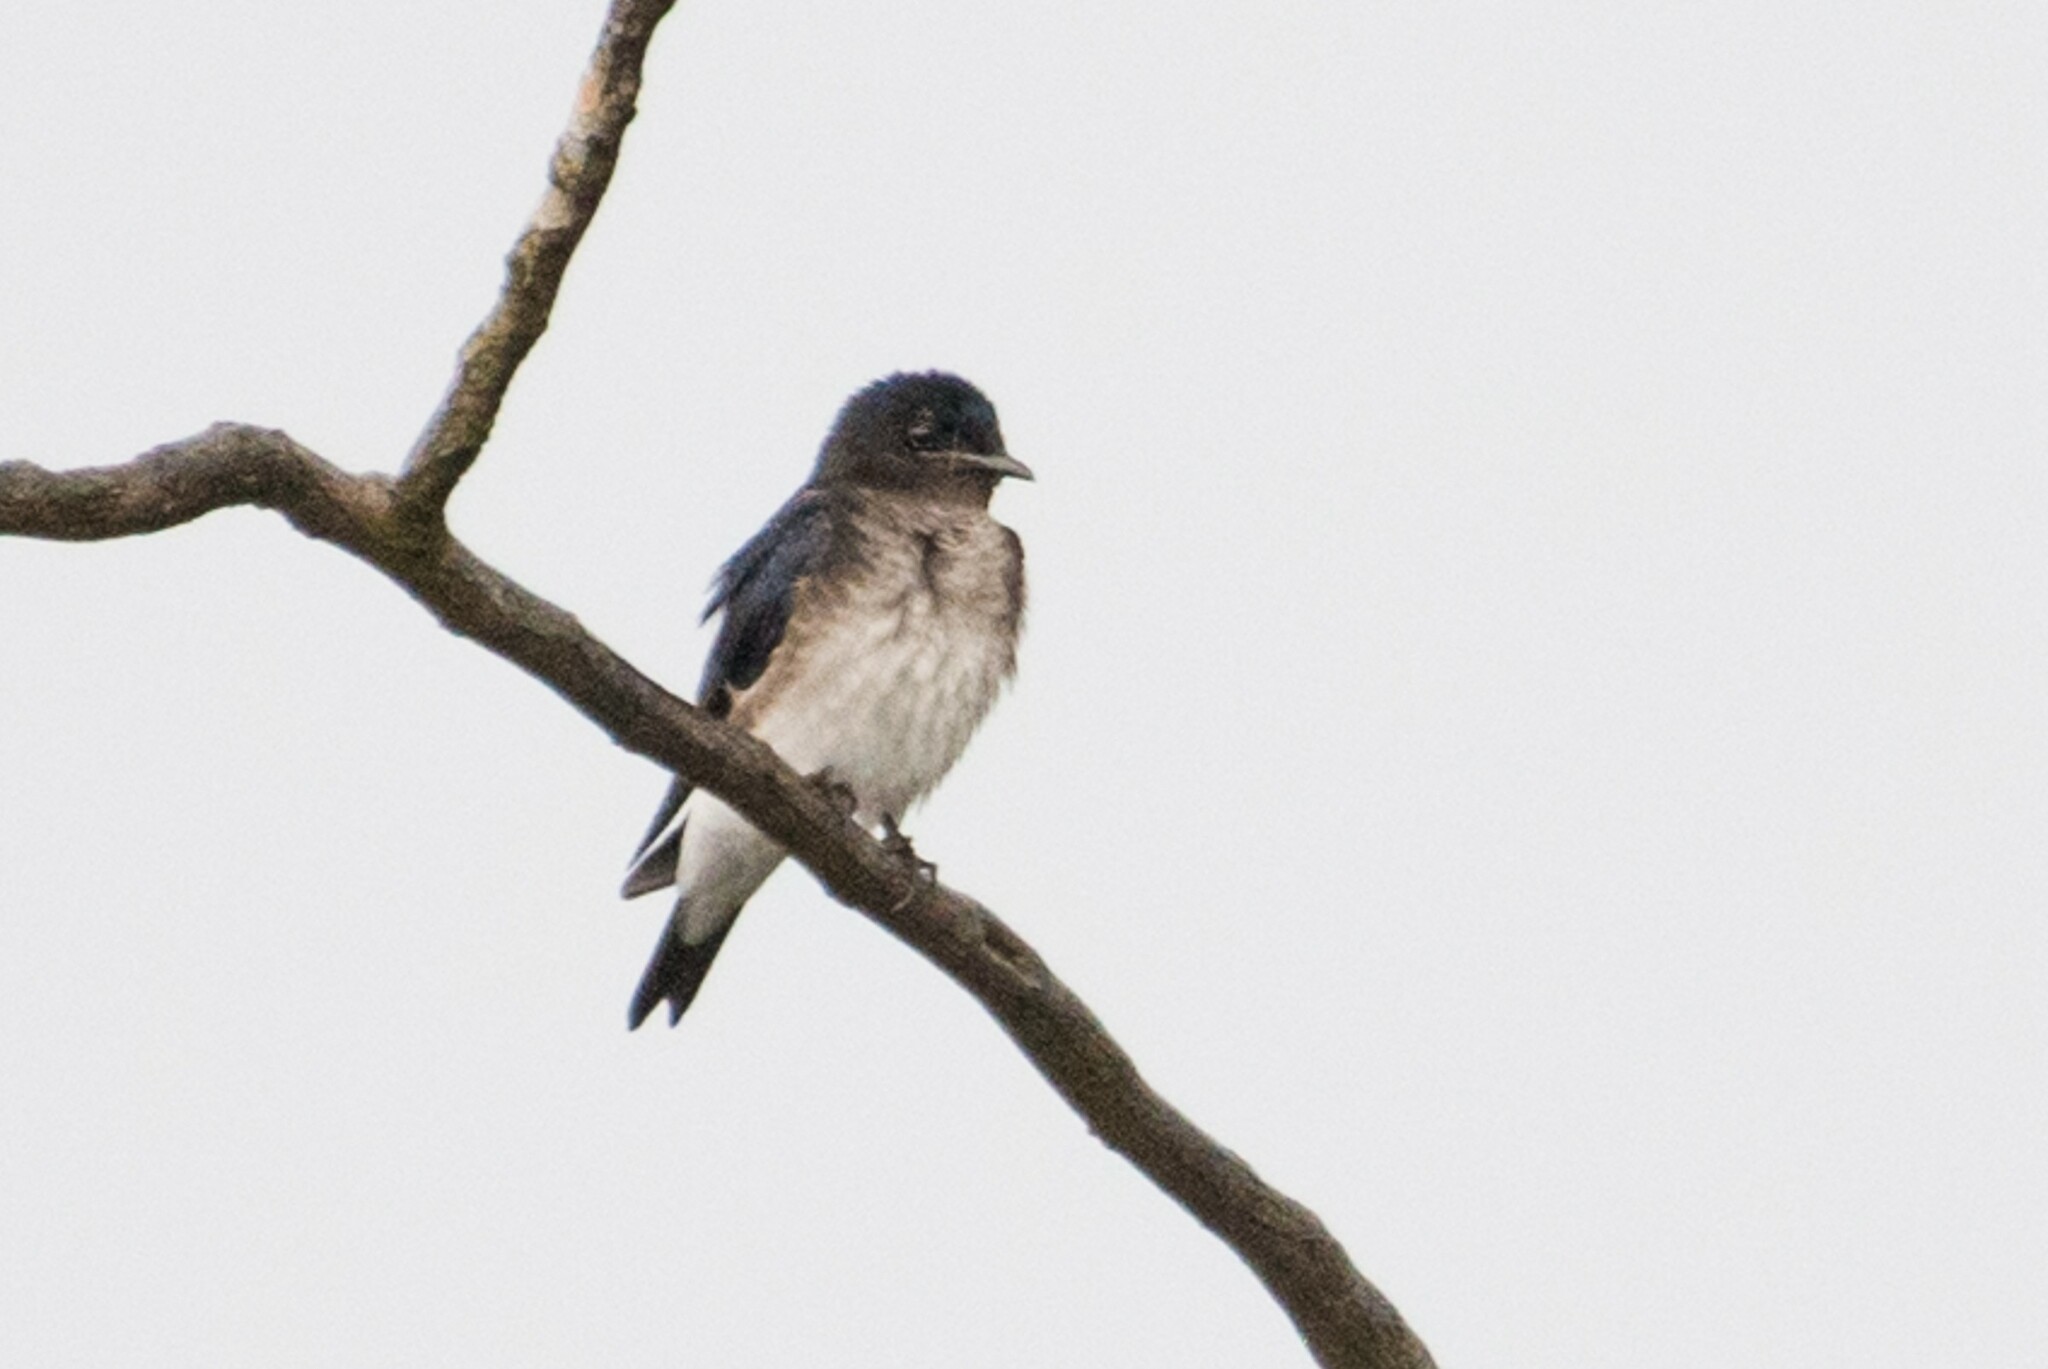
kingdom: Animalia
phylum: Chordata
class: Aves
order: Passeriformes
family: Hirundinidae
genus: Progne
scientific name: Progne chalybea
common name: Grey-breasted martin
